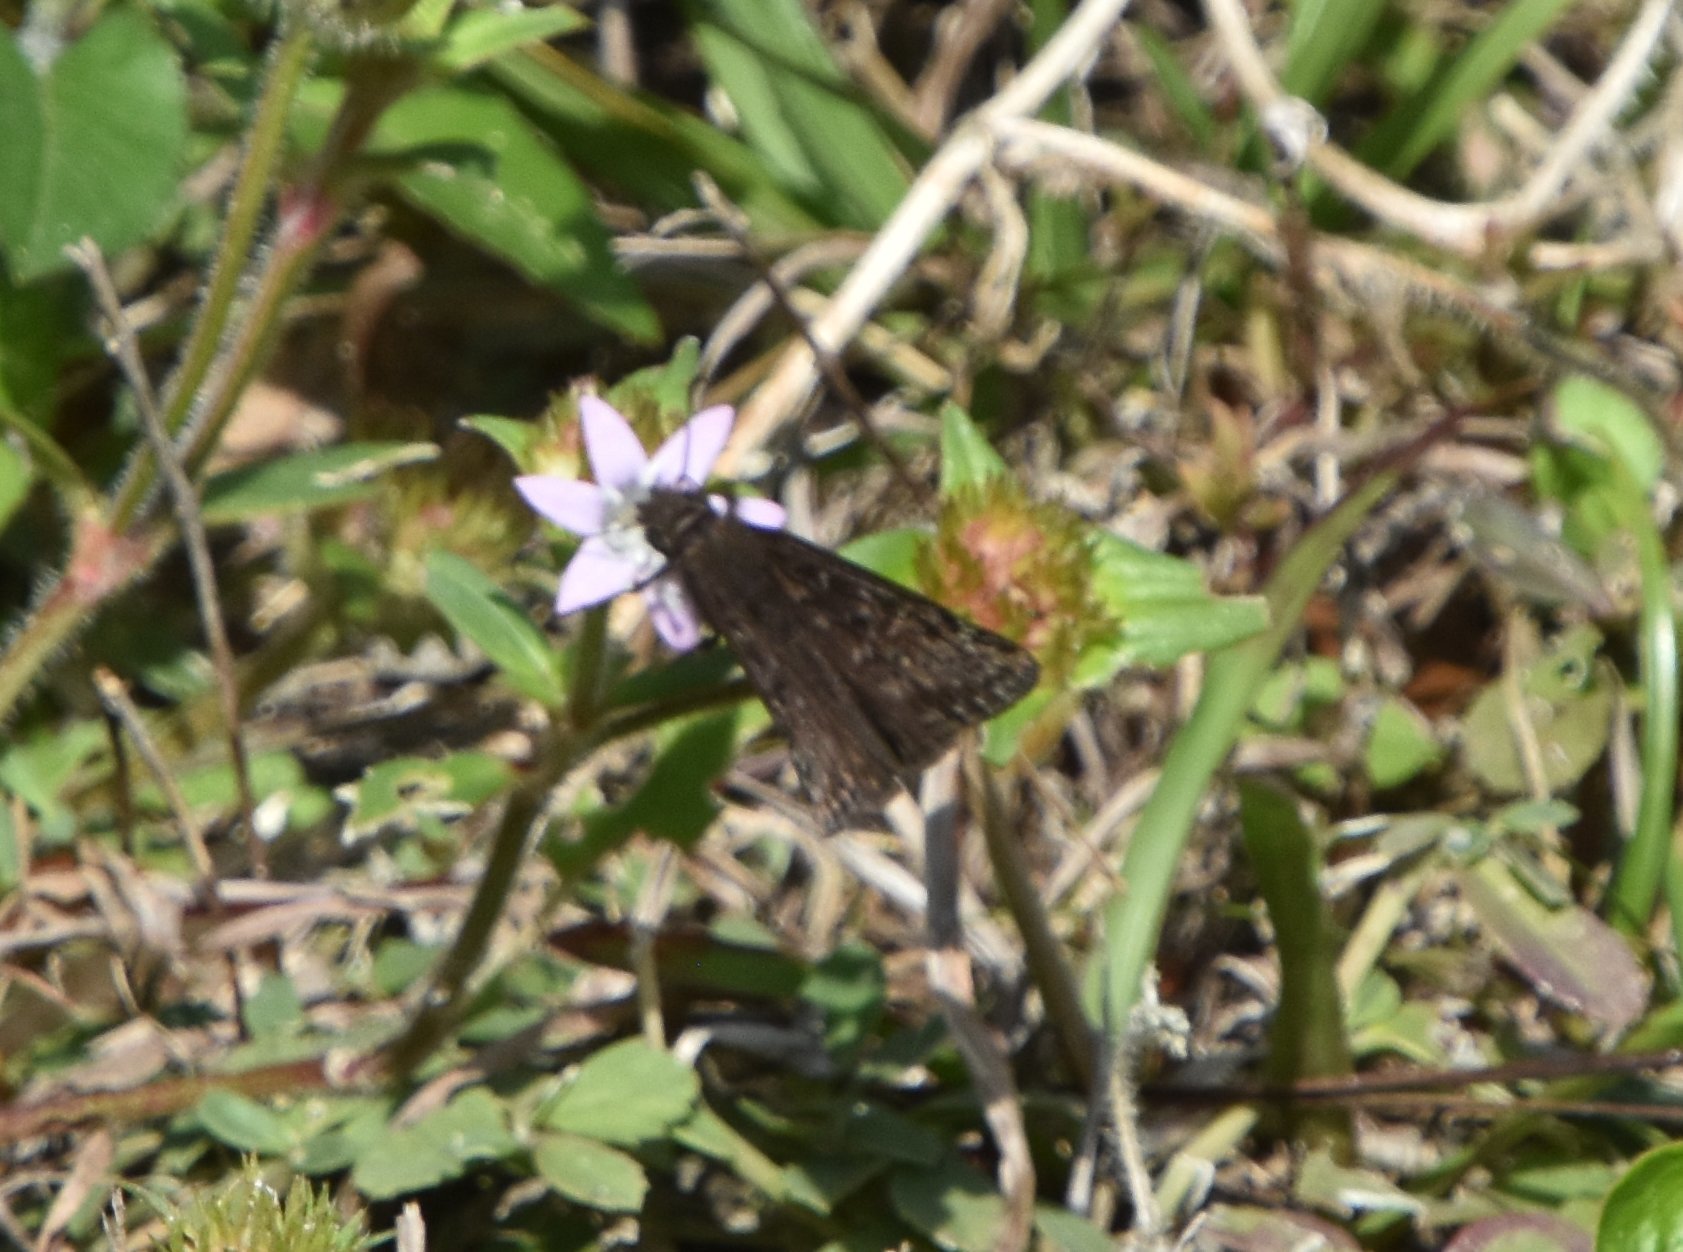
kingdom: Animalia
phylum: Arthropoda
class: Insecta
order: Lepidoptera
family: Hesperiidae
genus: Erynnis
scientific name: Erynnis horatius
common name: Horace's duskywing
